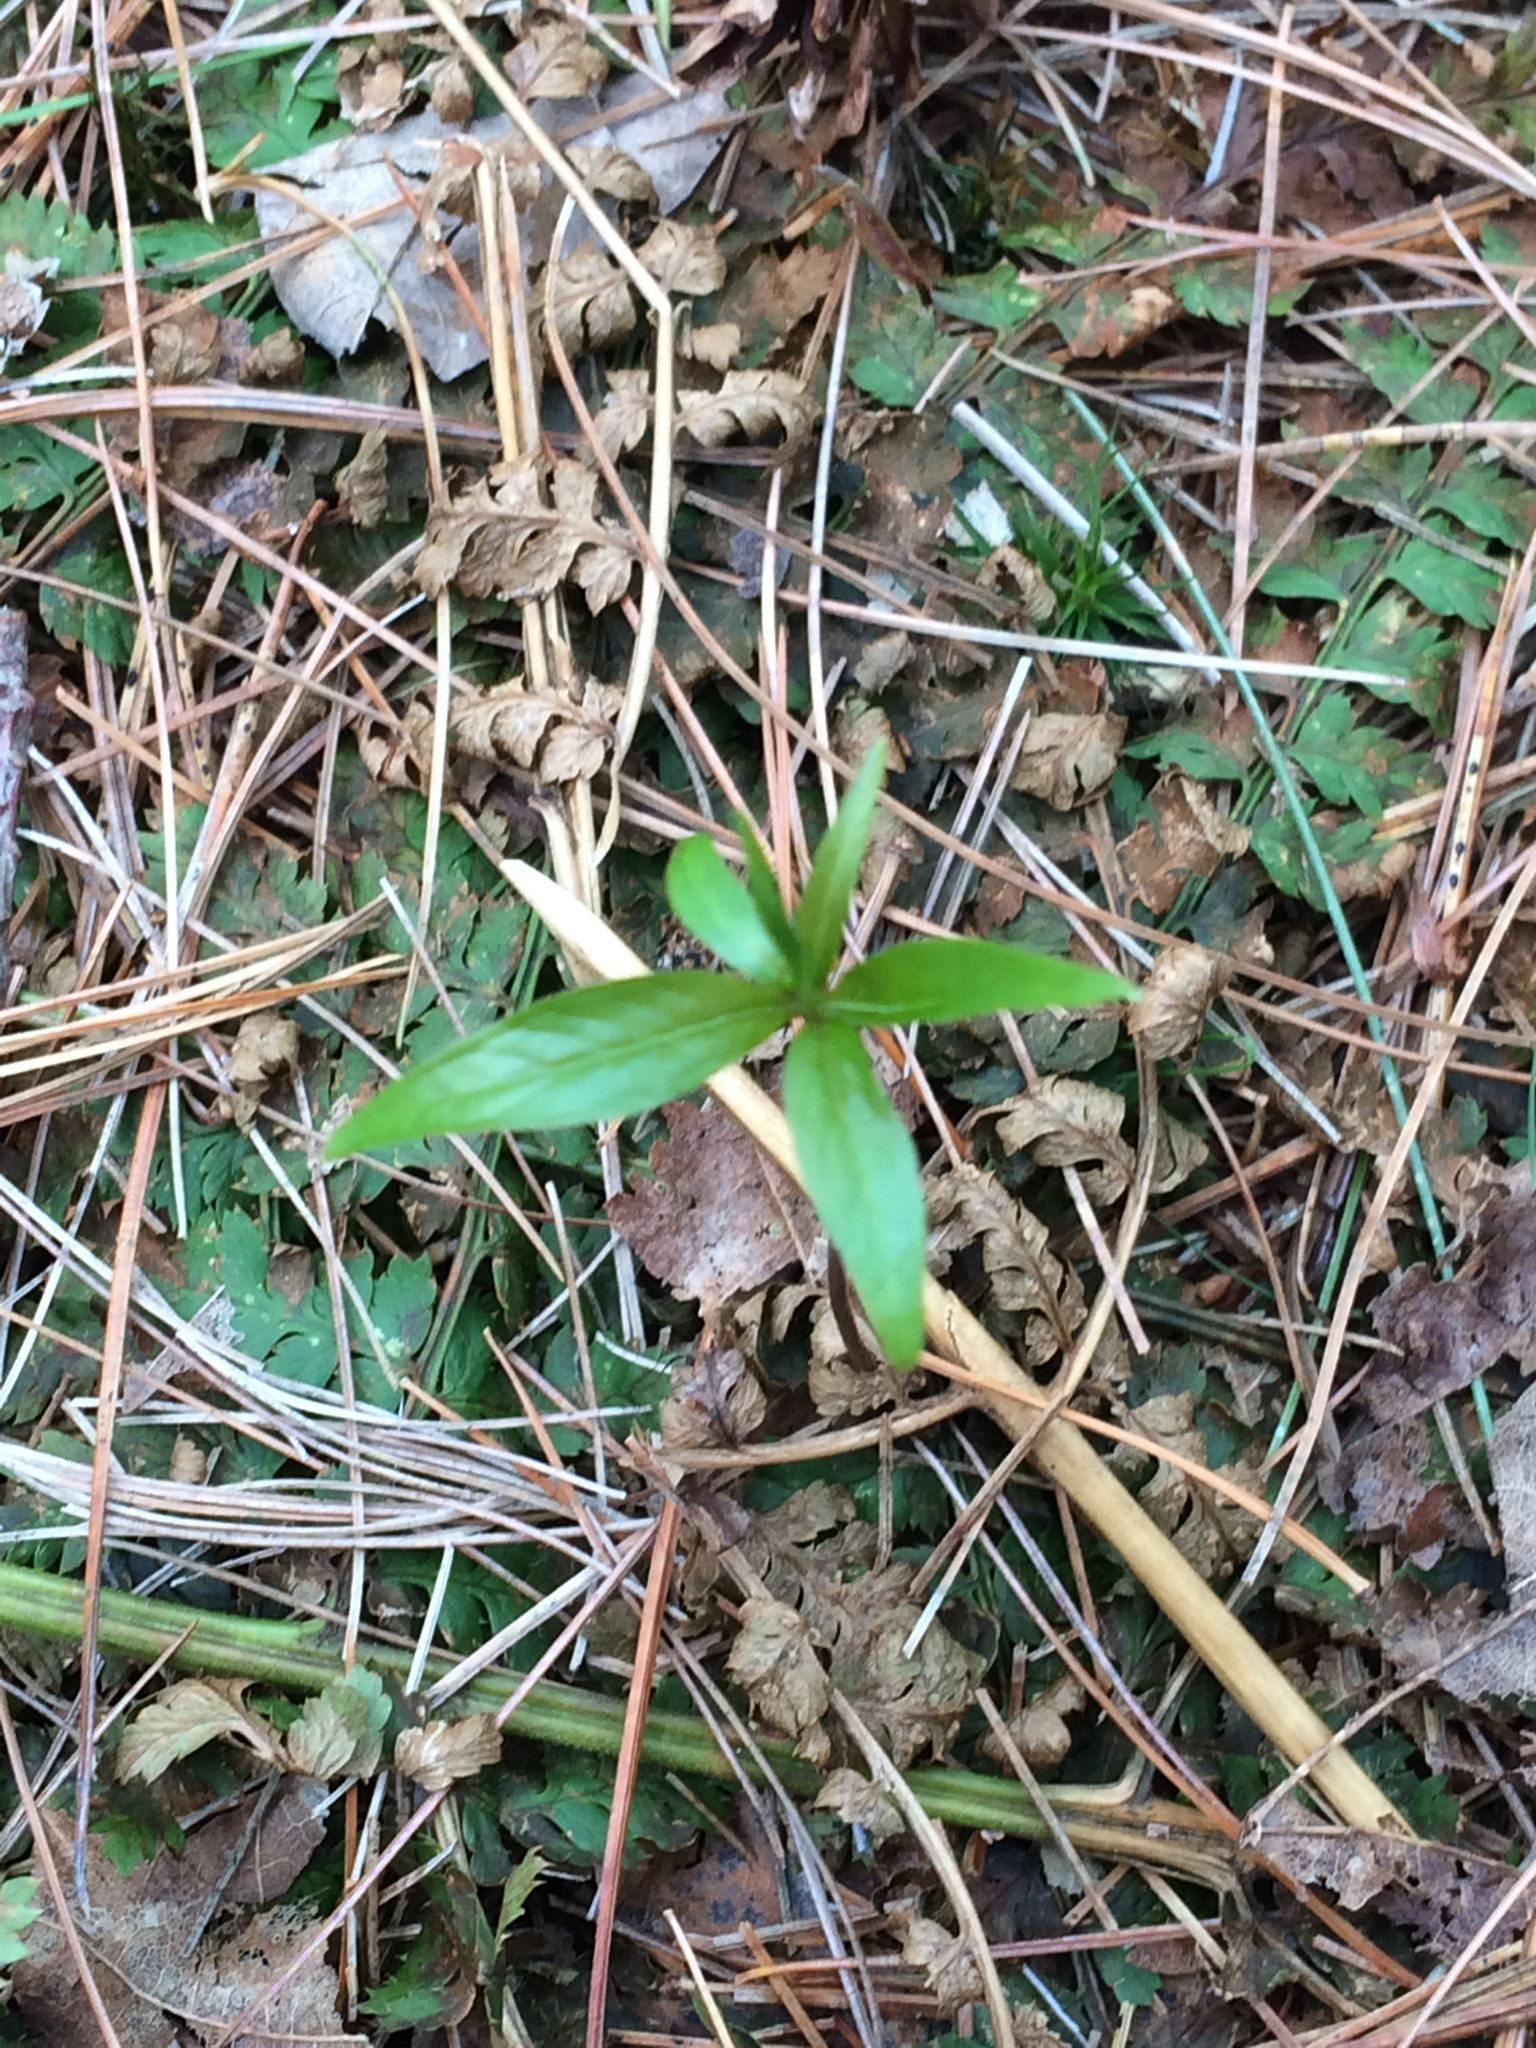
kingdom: Plantae
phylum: Tracheophyta
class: Magnoliopsida
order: Ericales
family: Primulaceae
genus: Lysimachia
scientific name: Lysimachia borealis
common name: American starflower
